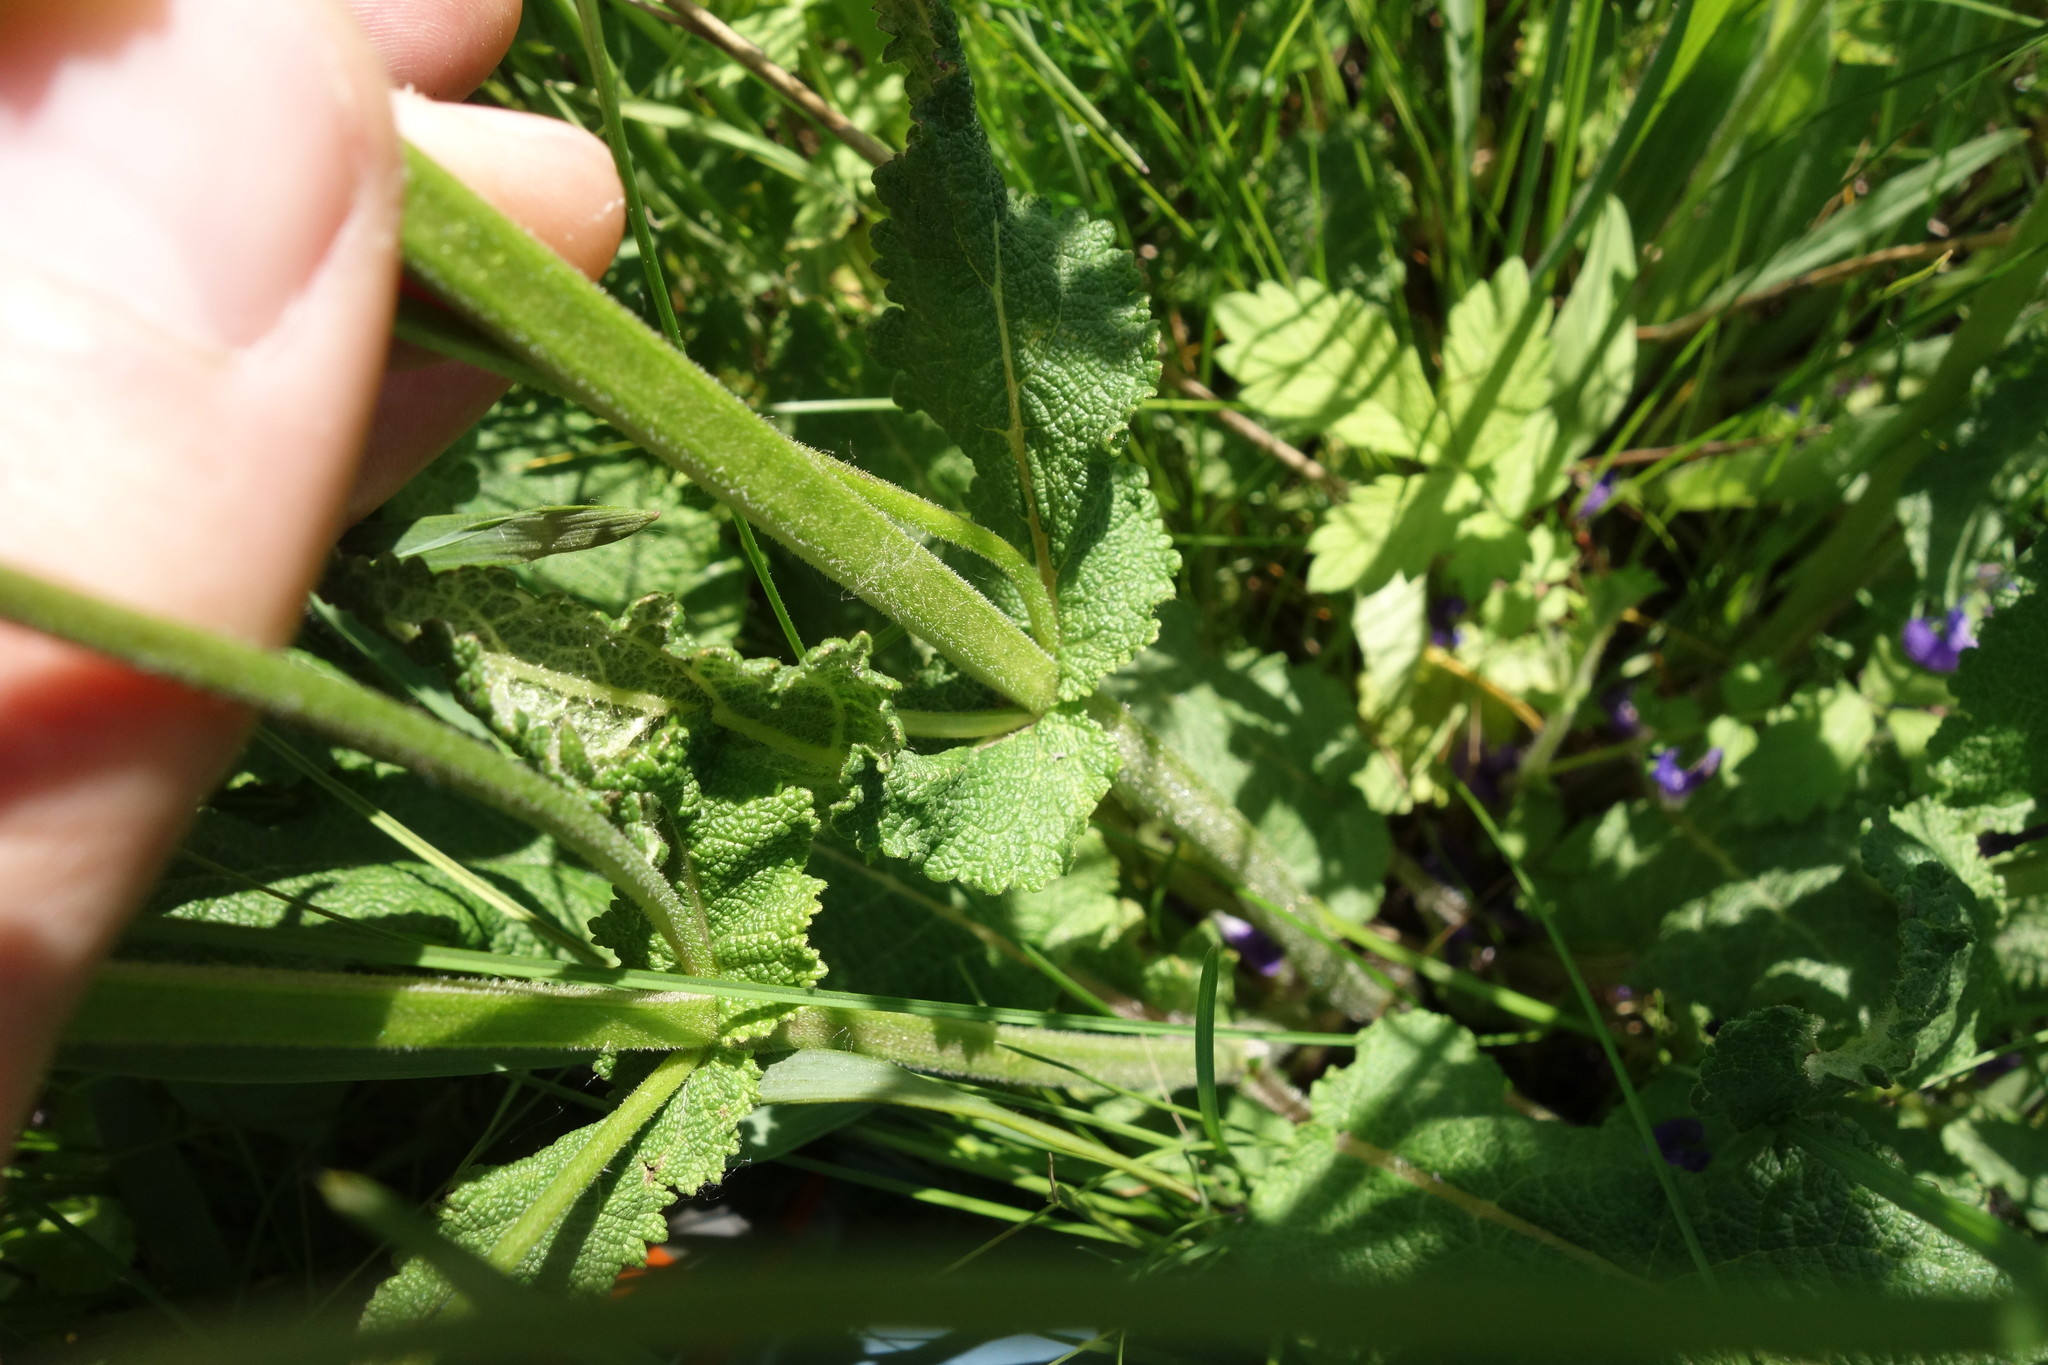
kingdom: Plantae
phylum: Tracheophyta
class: Magnoliopsida
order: Lamiales
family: Lamiaceae
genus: Salvia
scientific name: Salvia pratensis
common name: Meadow sage
